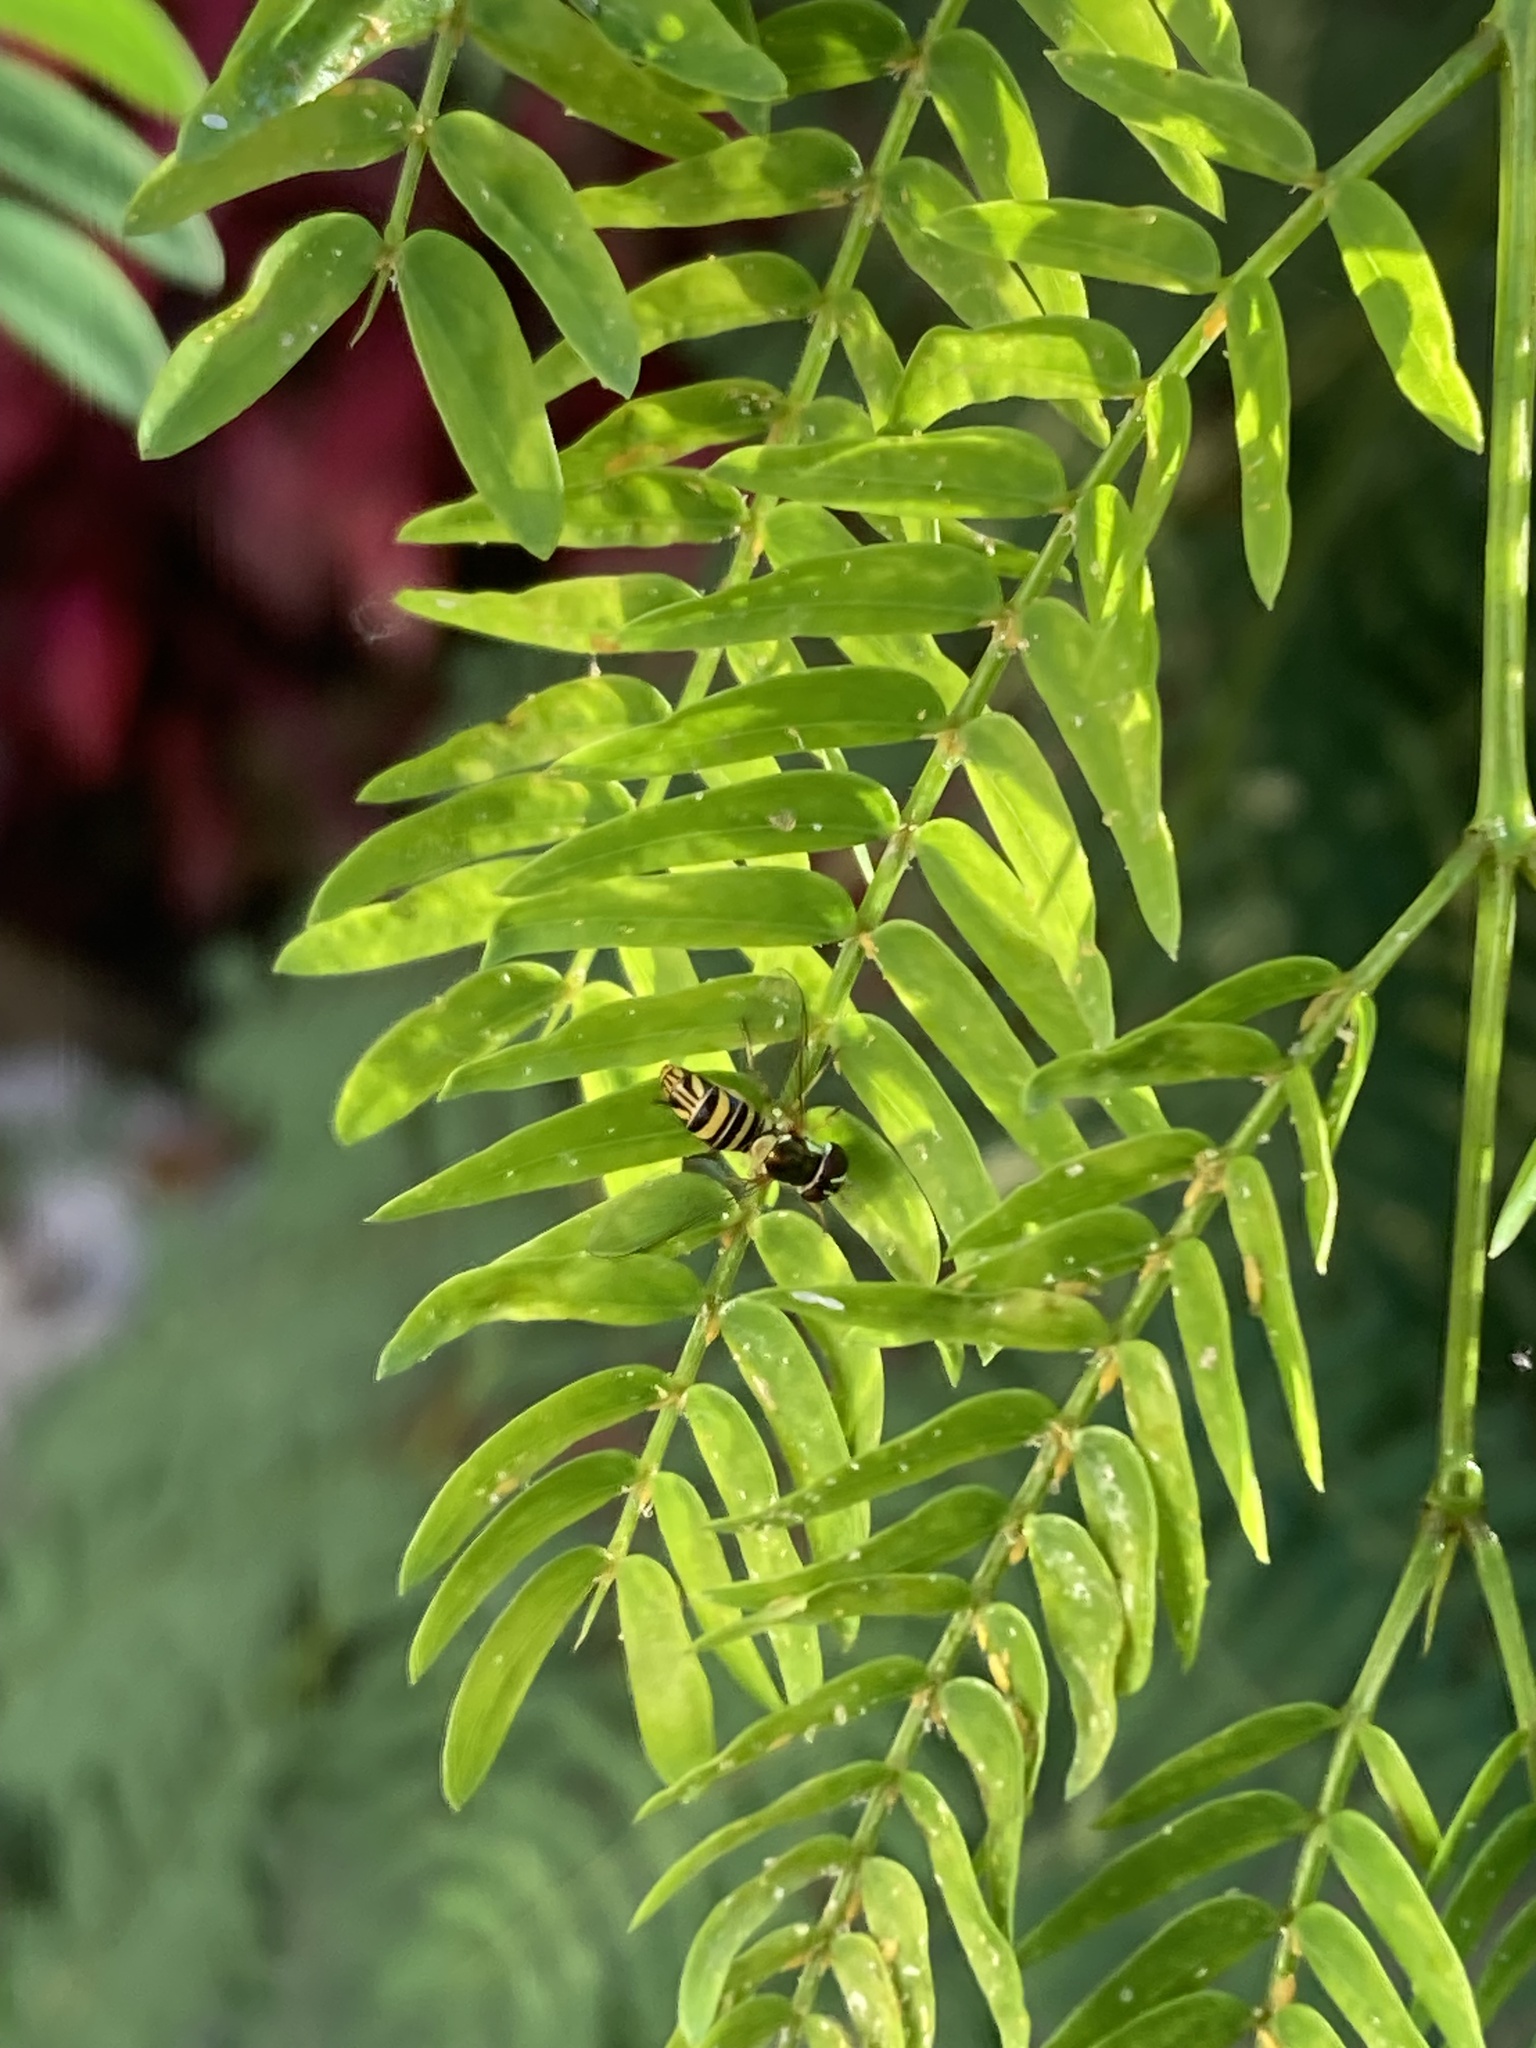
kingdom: Animalia
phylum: Arthropoda
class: Insecta
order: Diptera
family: Syrphidae
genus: Allograpta
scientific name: Allograpta obliqua
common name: Common oblique syrphid
